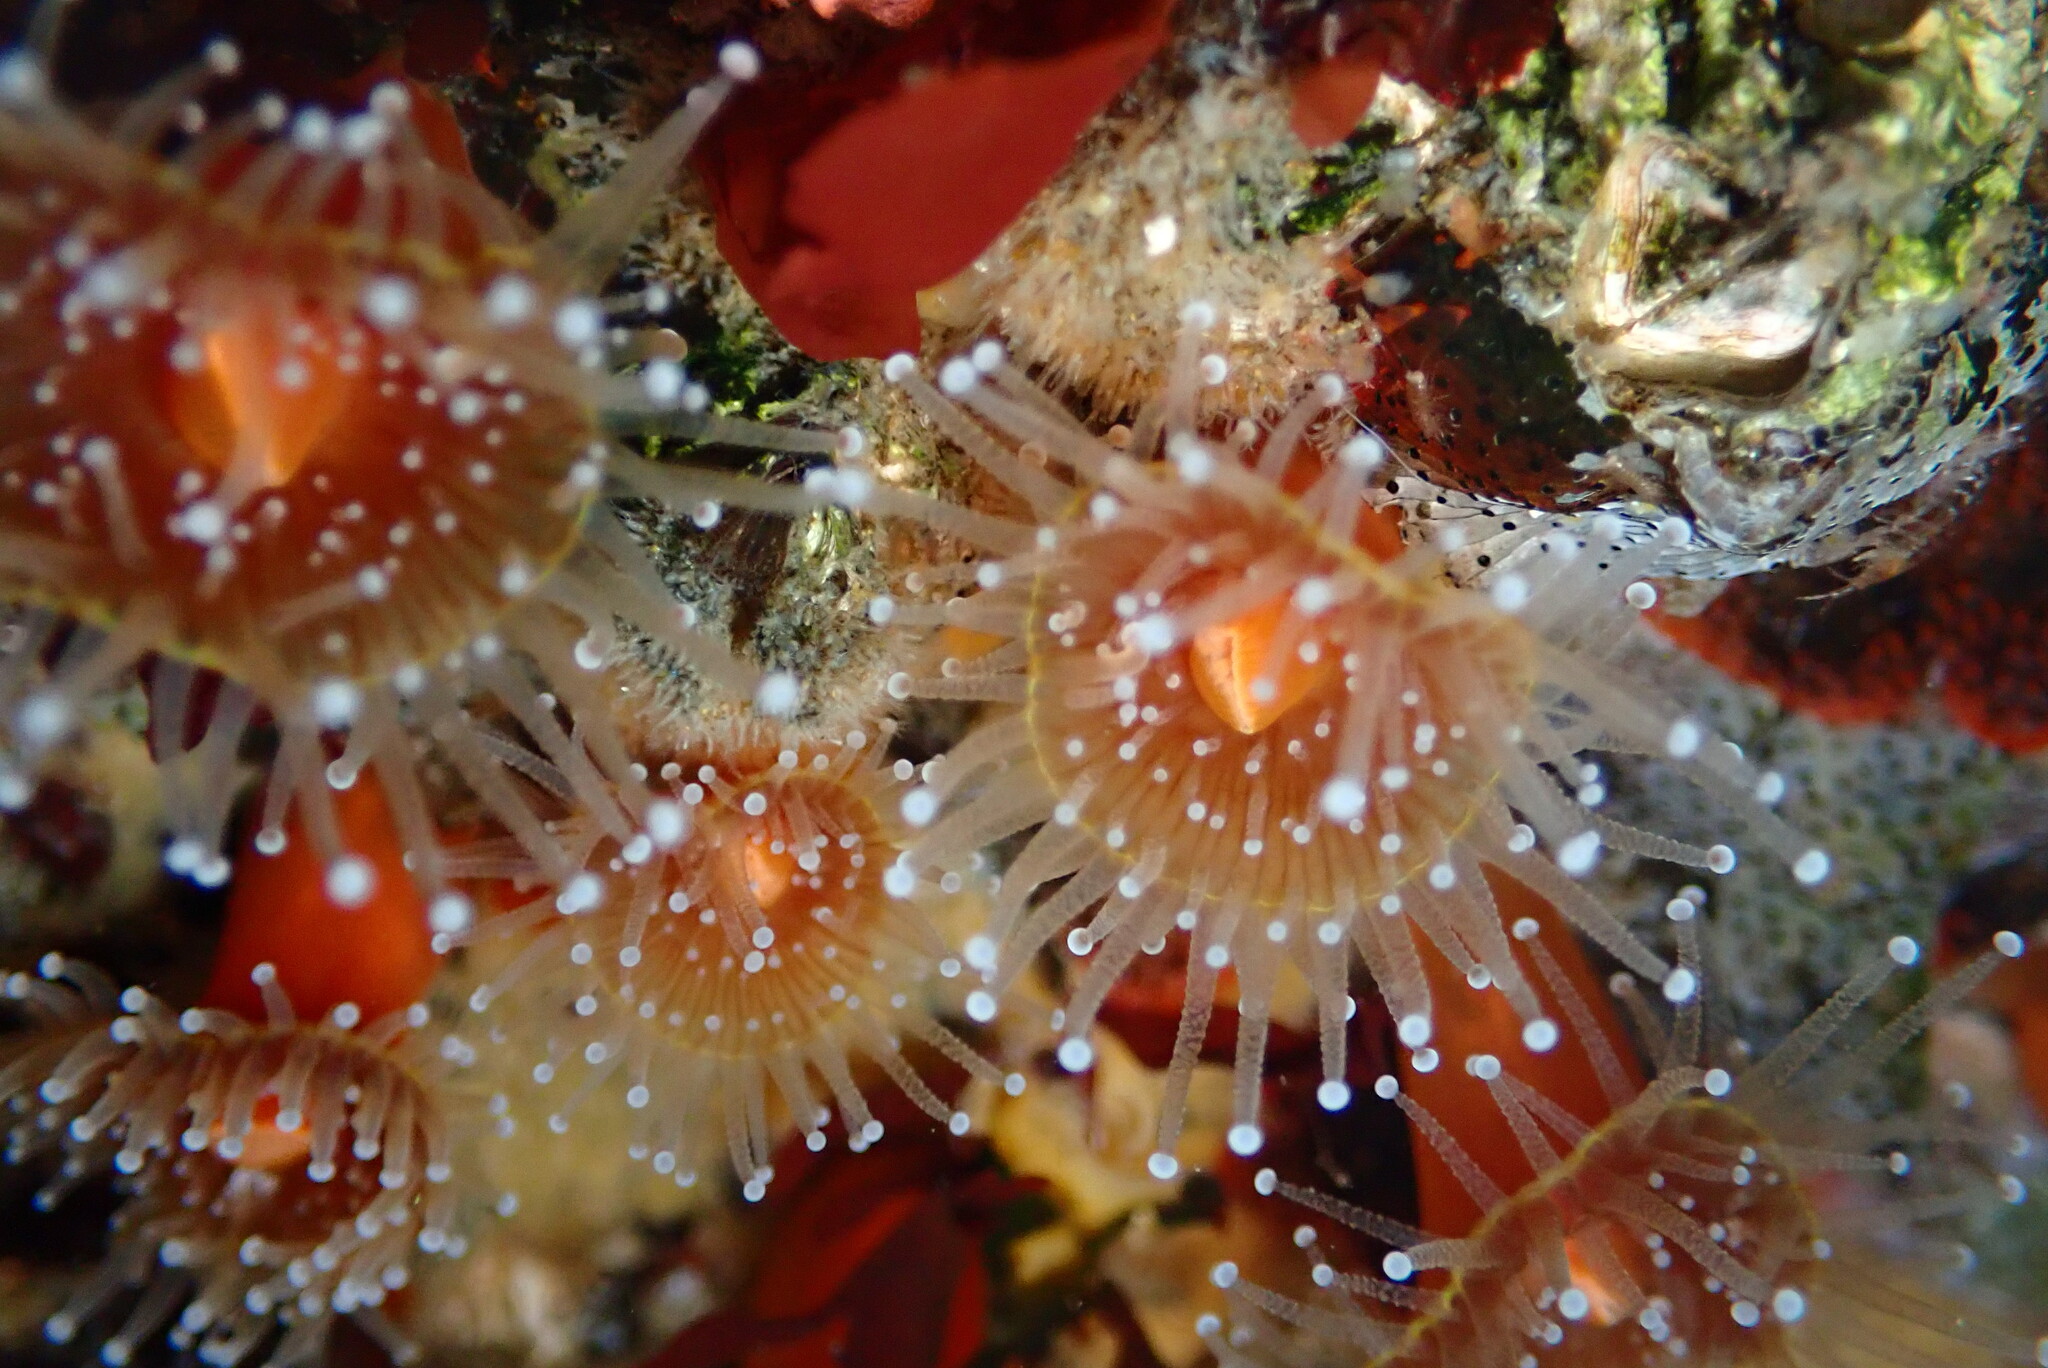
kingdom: Animalia
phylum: Cnidaria
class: Anthozoa
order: Corallimorpharia
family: Corallimorphidae
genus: Corynactis
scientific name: Corynactis californica
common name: Strawberry corallimorpharian
